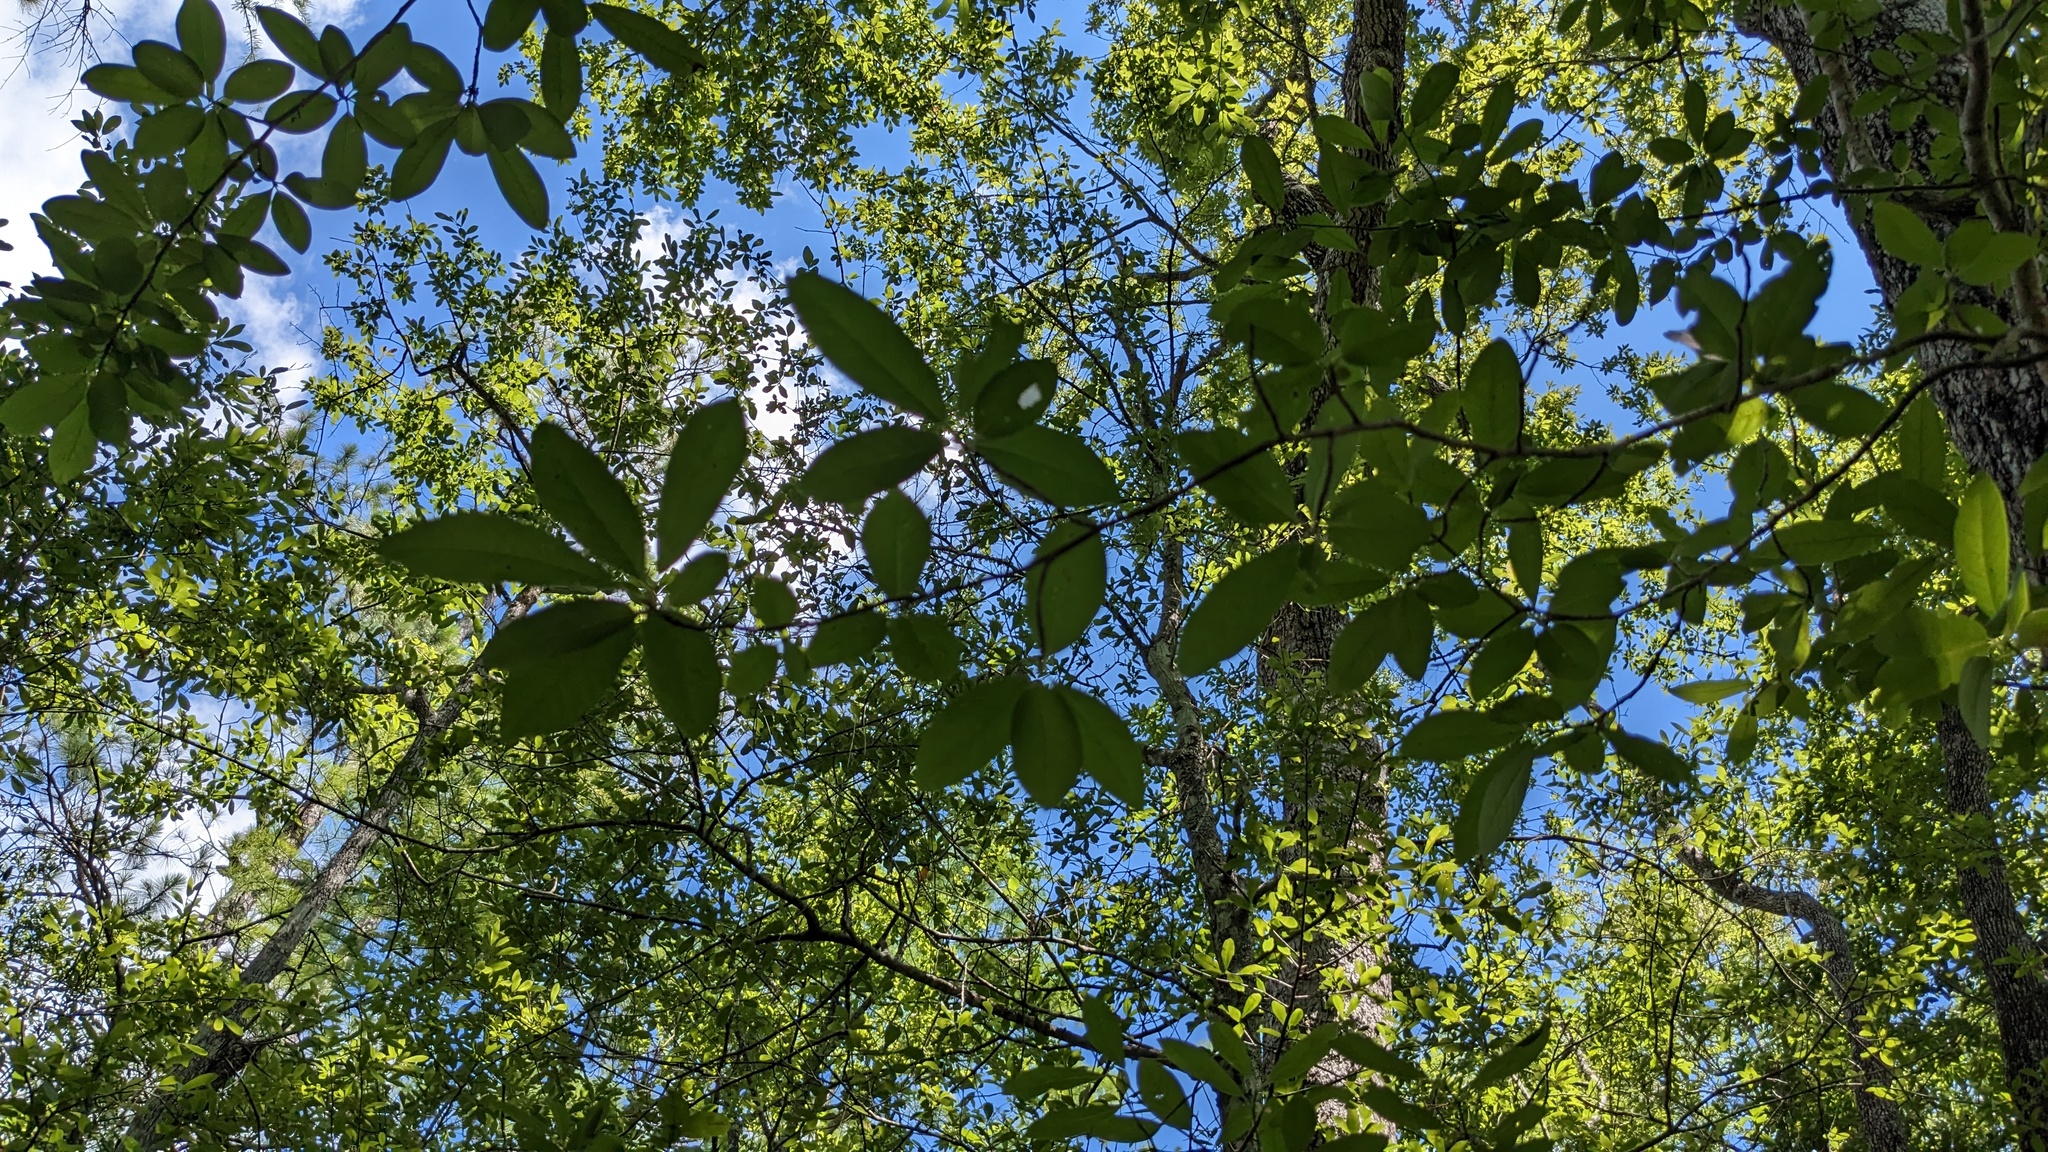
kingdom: Plantae
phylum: Tracheophyta
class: Magnoliopsida
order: Cornales
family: Nyssaceae
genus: Nyssa
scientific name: Nyssa biflora
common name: Swamp blackgum
